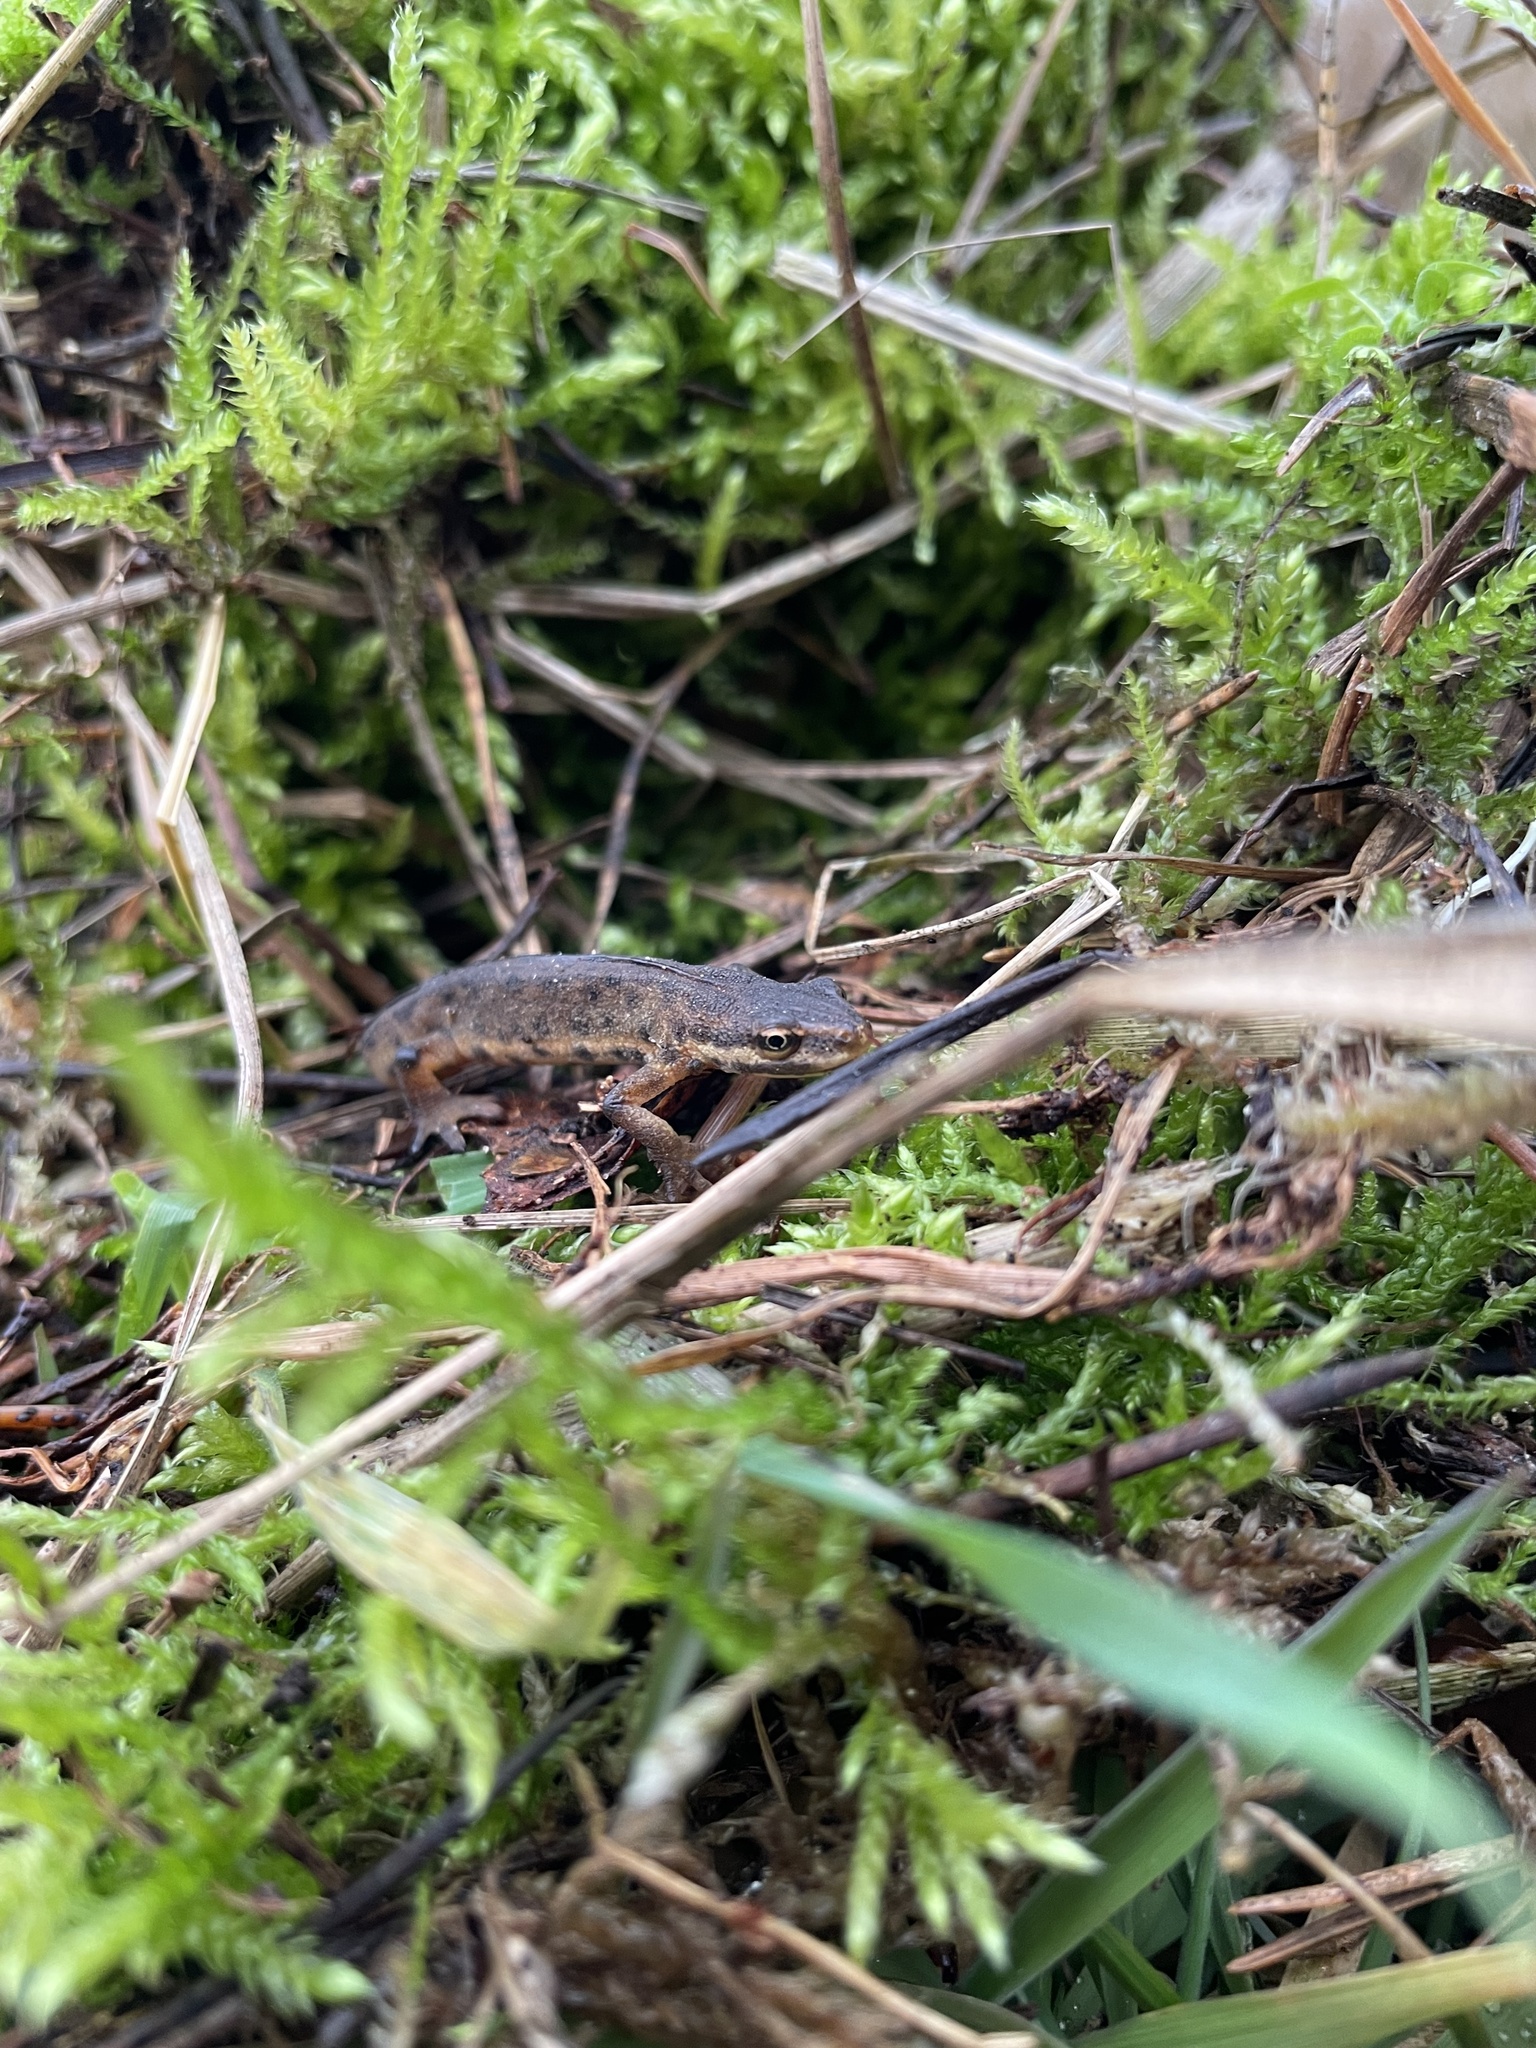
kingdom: Animalia
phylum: Chordata
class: Amphibia
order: Caudata
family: Salamandridae
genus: Lissotriton
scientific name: Lissotriton vulgaris
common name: Smooth newt
